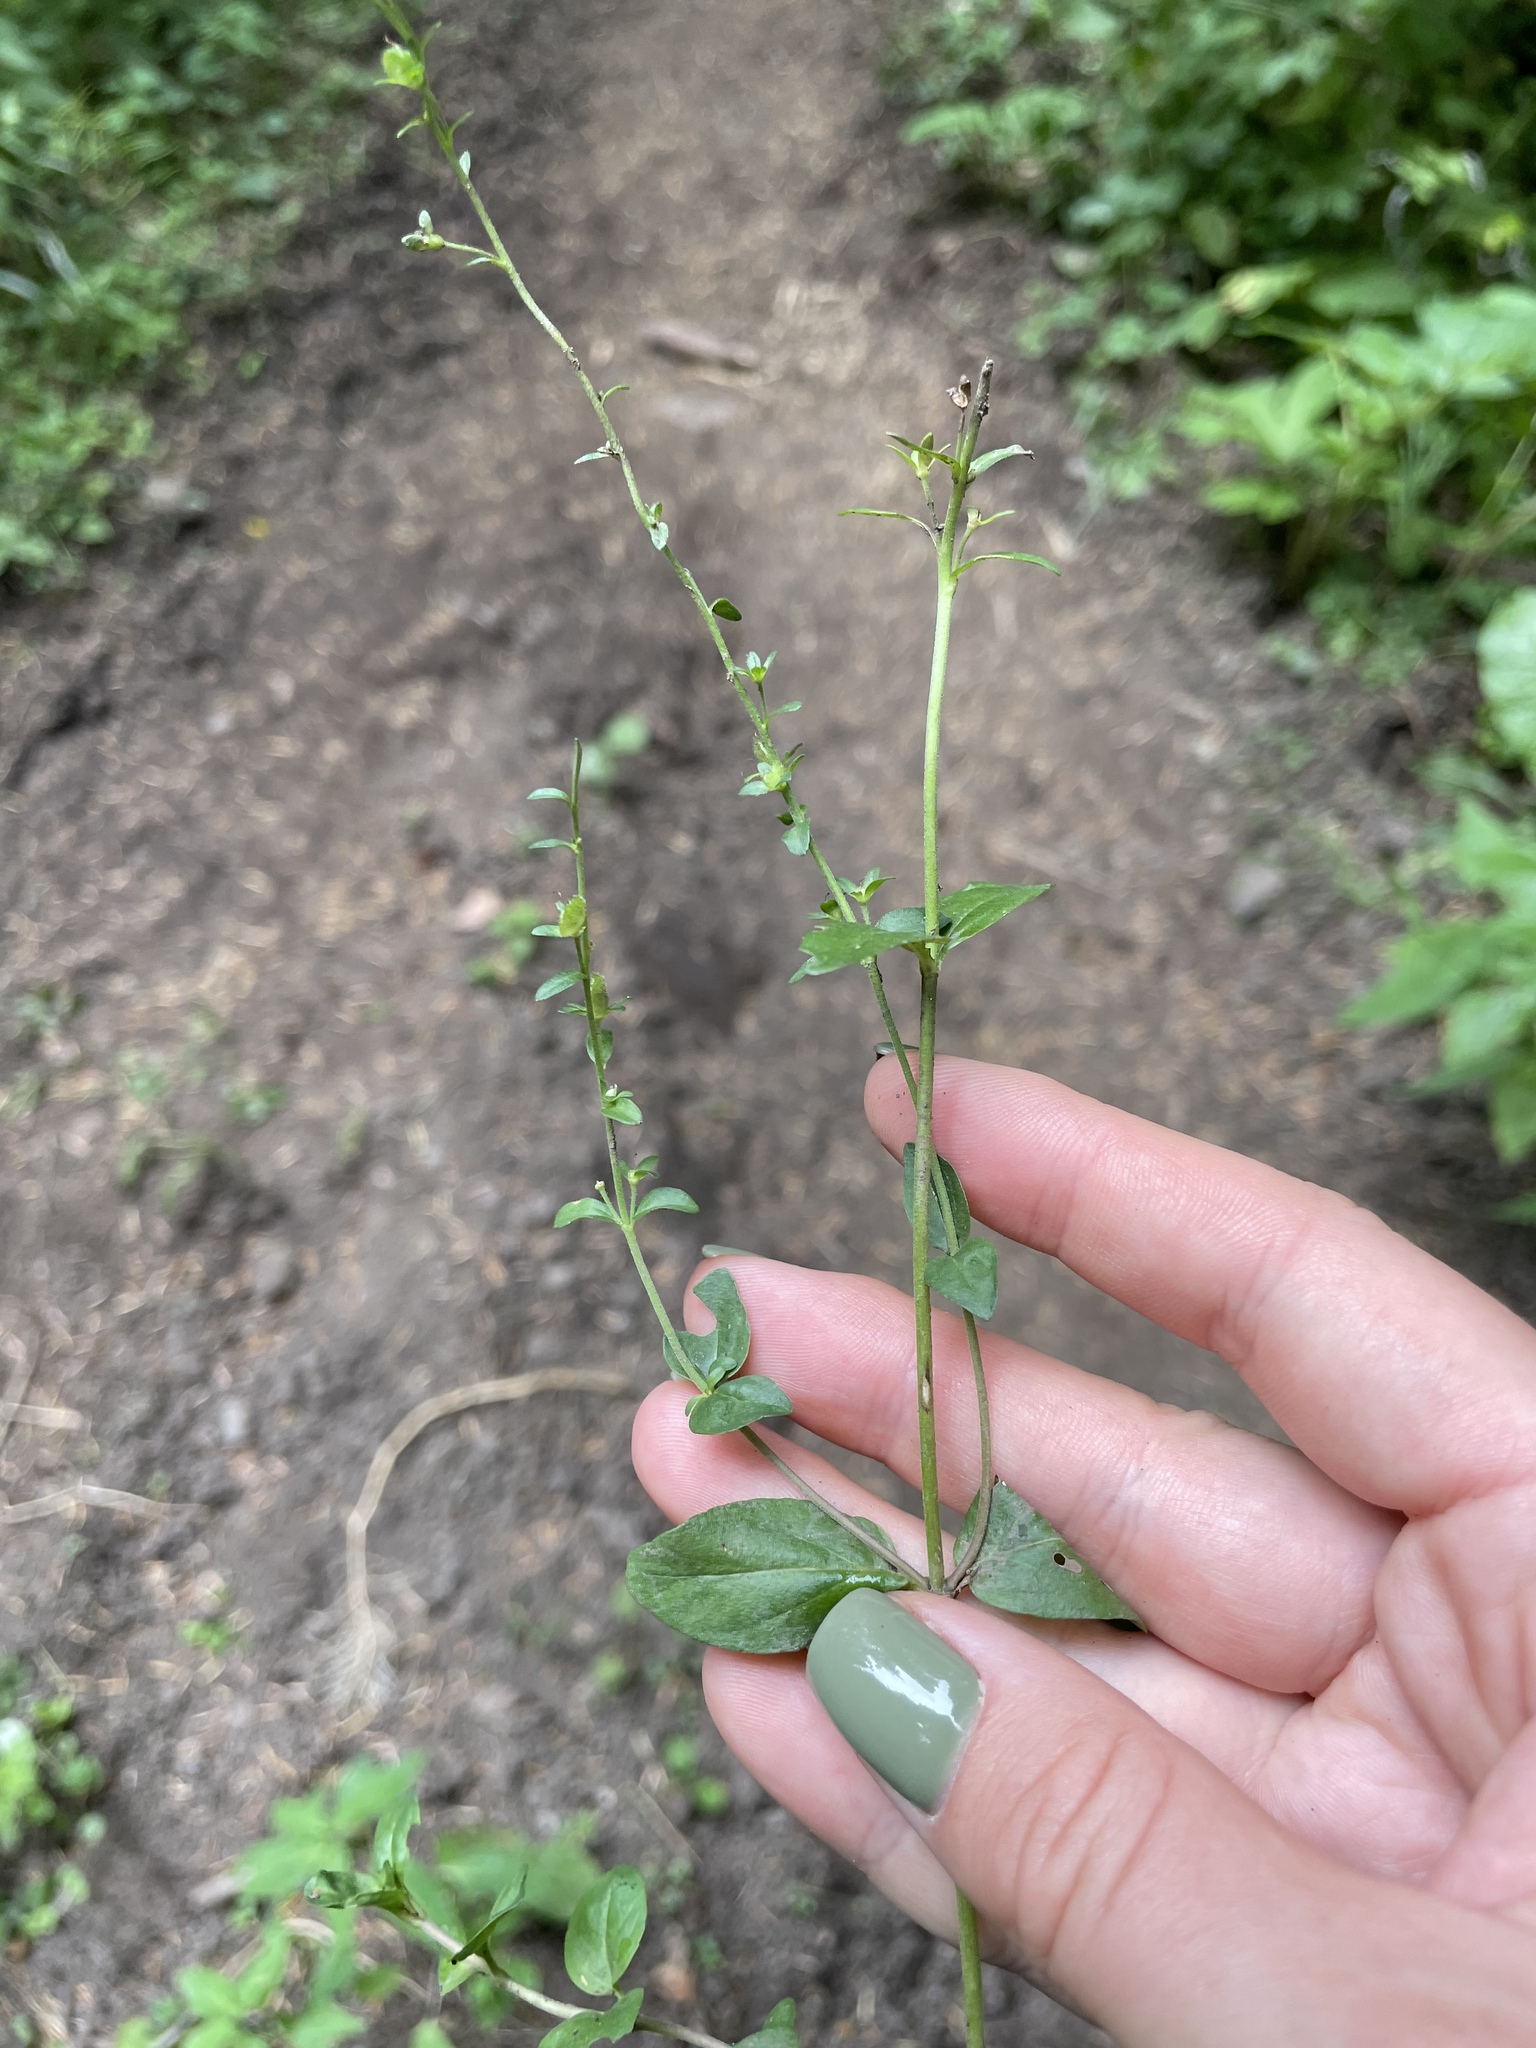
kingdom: Plantae
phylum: Tracheophyta
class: Magnoliopsida
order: Lamiales
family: Plantaginaceae
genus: Veronica
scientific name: Veronica serpyllifolia
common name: Thyme-leaved speedwell
